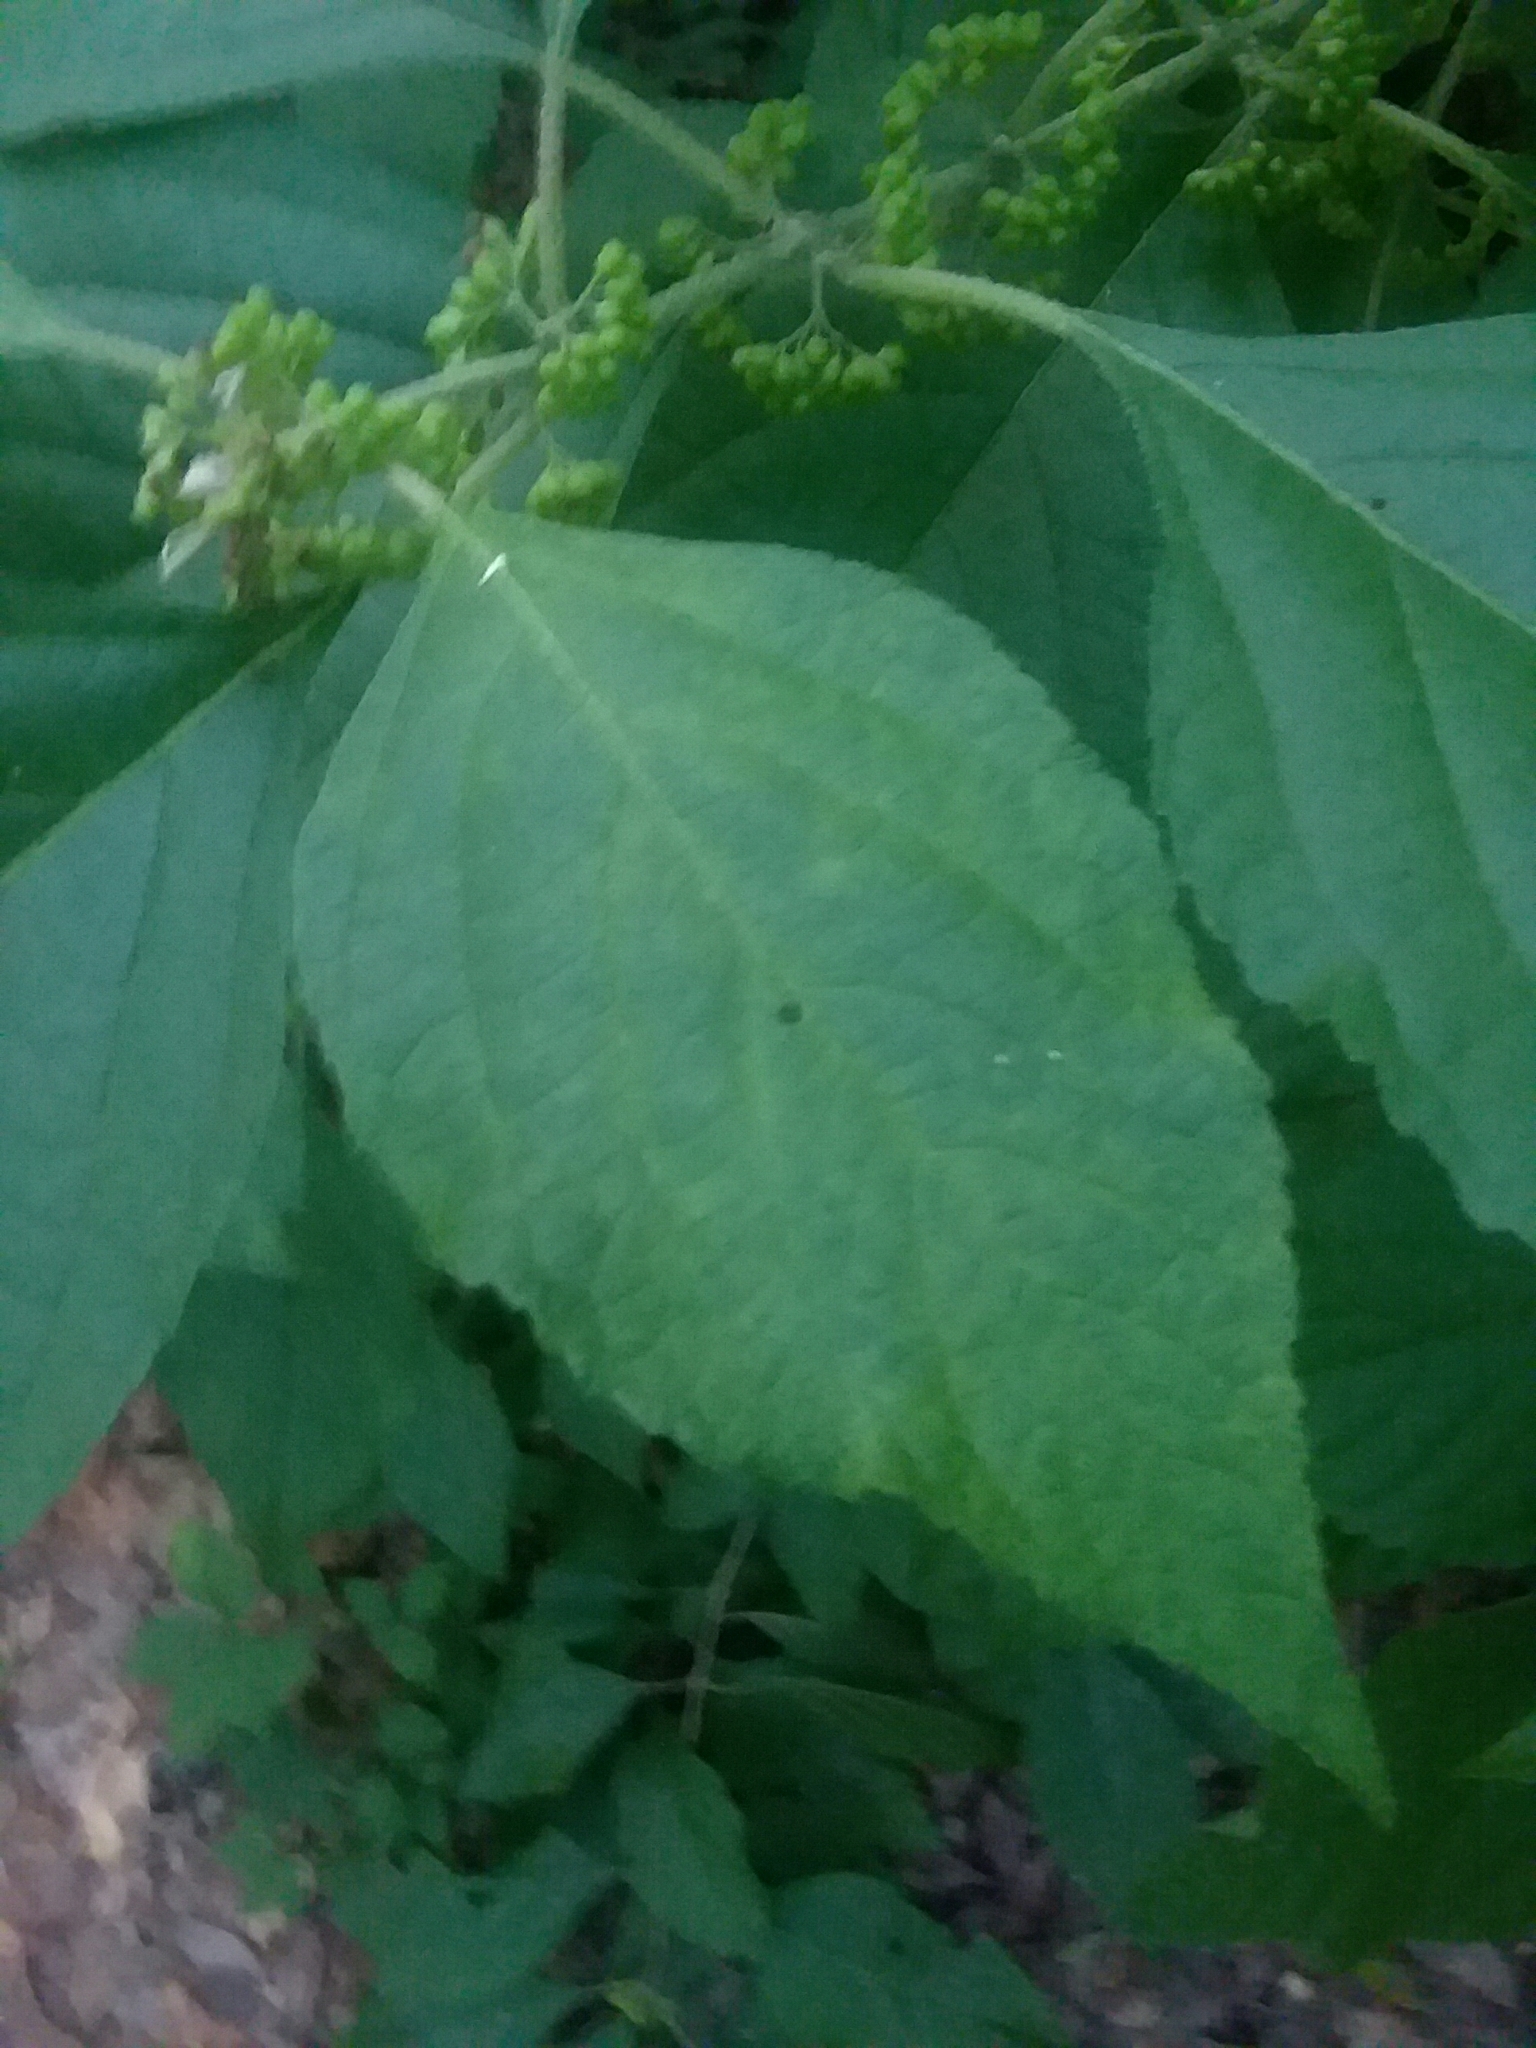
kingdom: Plantae
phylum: Tracheophyta
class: Magnoliopsida
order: Lamiales
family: Lamiaceae
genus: Callicarpa
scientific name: Callicarpa americana
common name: American beautyberry
